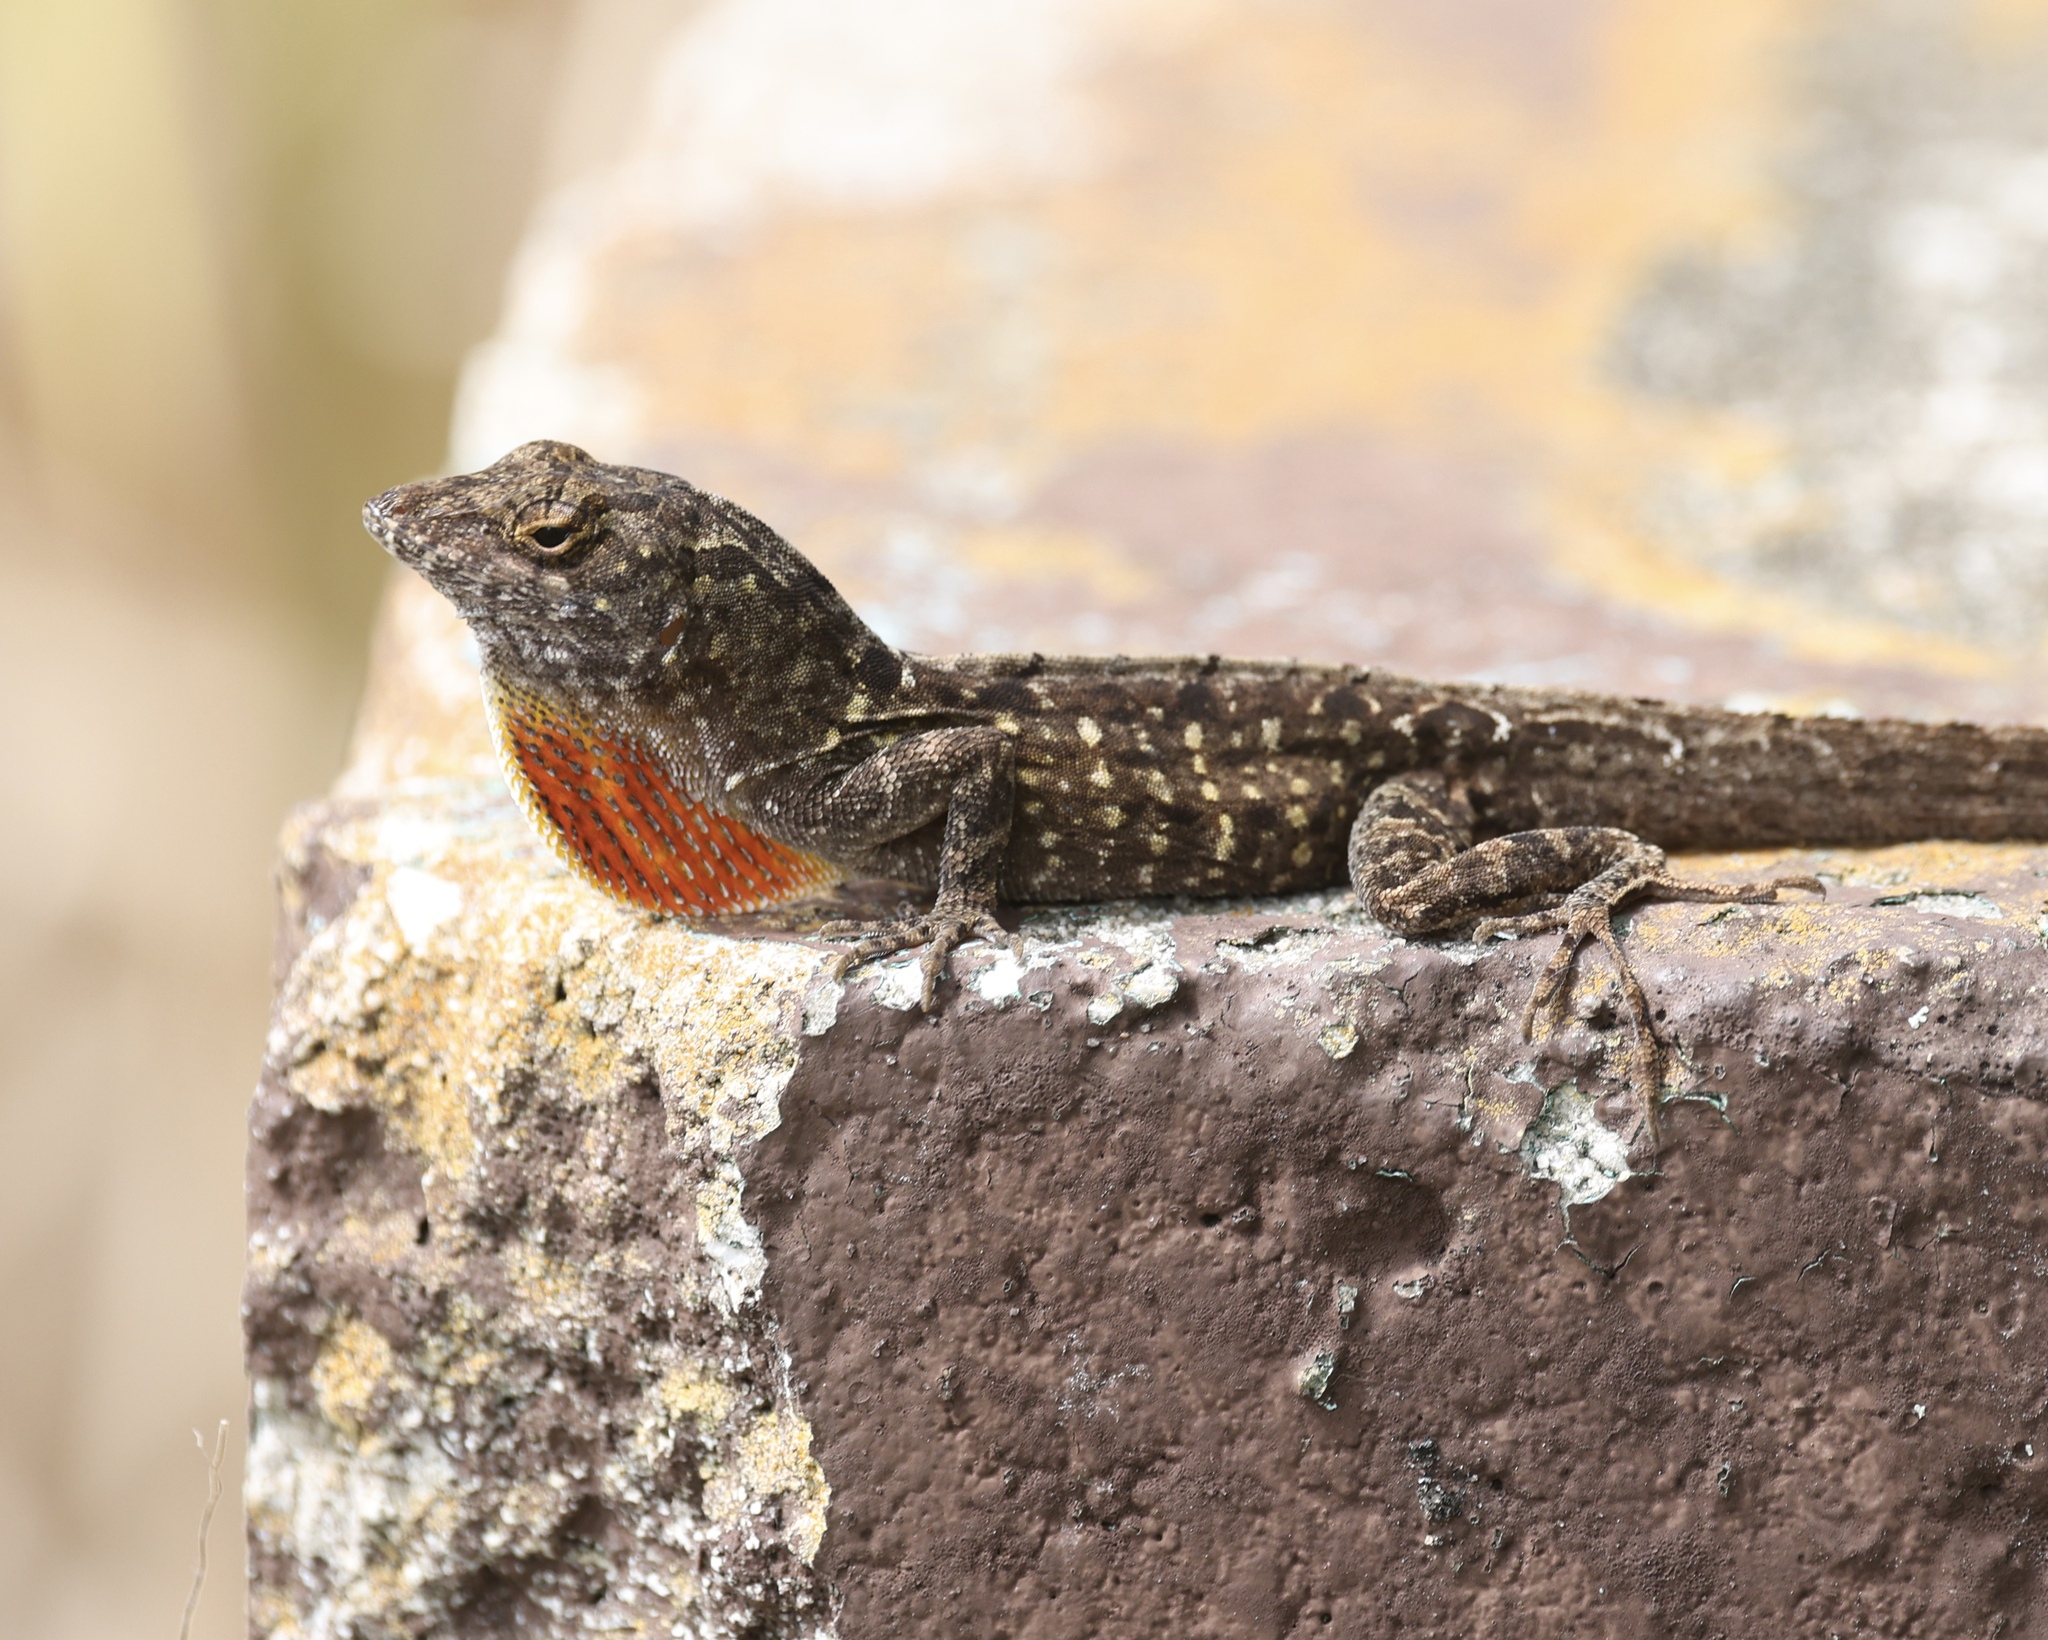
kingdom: Animalia
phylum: Chordata
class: Squamata
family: Dactyloidae
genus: Anolis
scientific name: Anolis sagrei
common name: Brown anole
